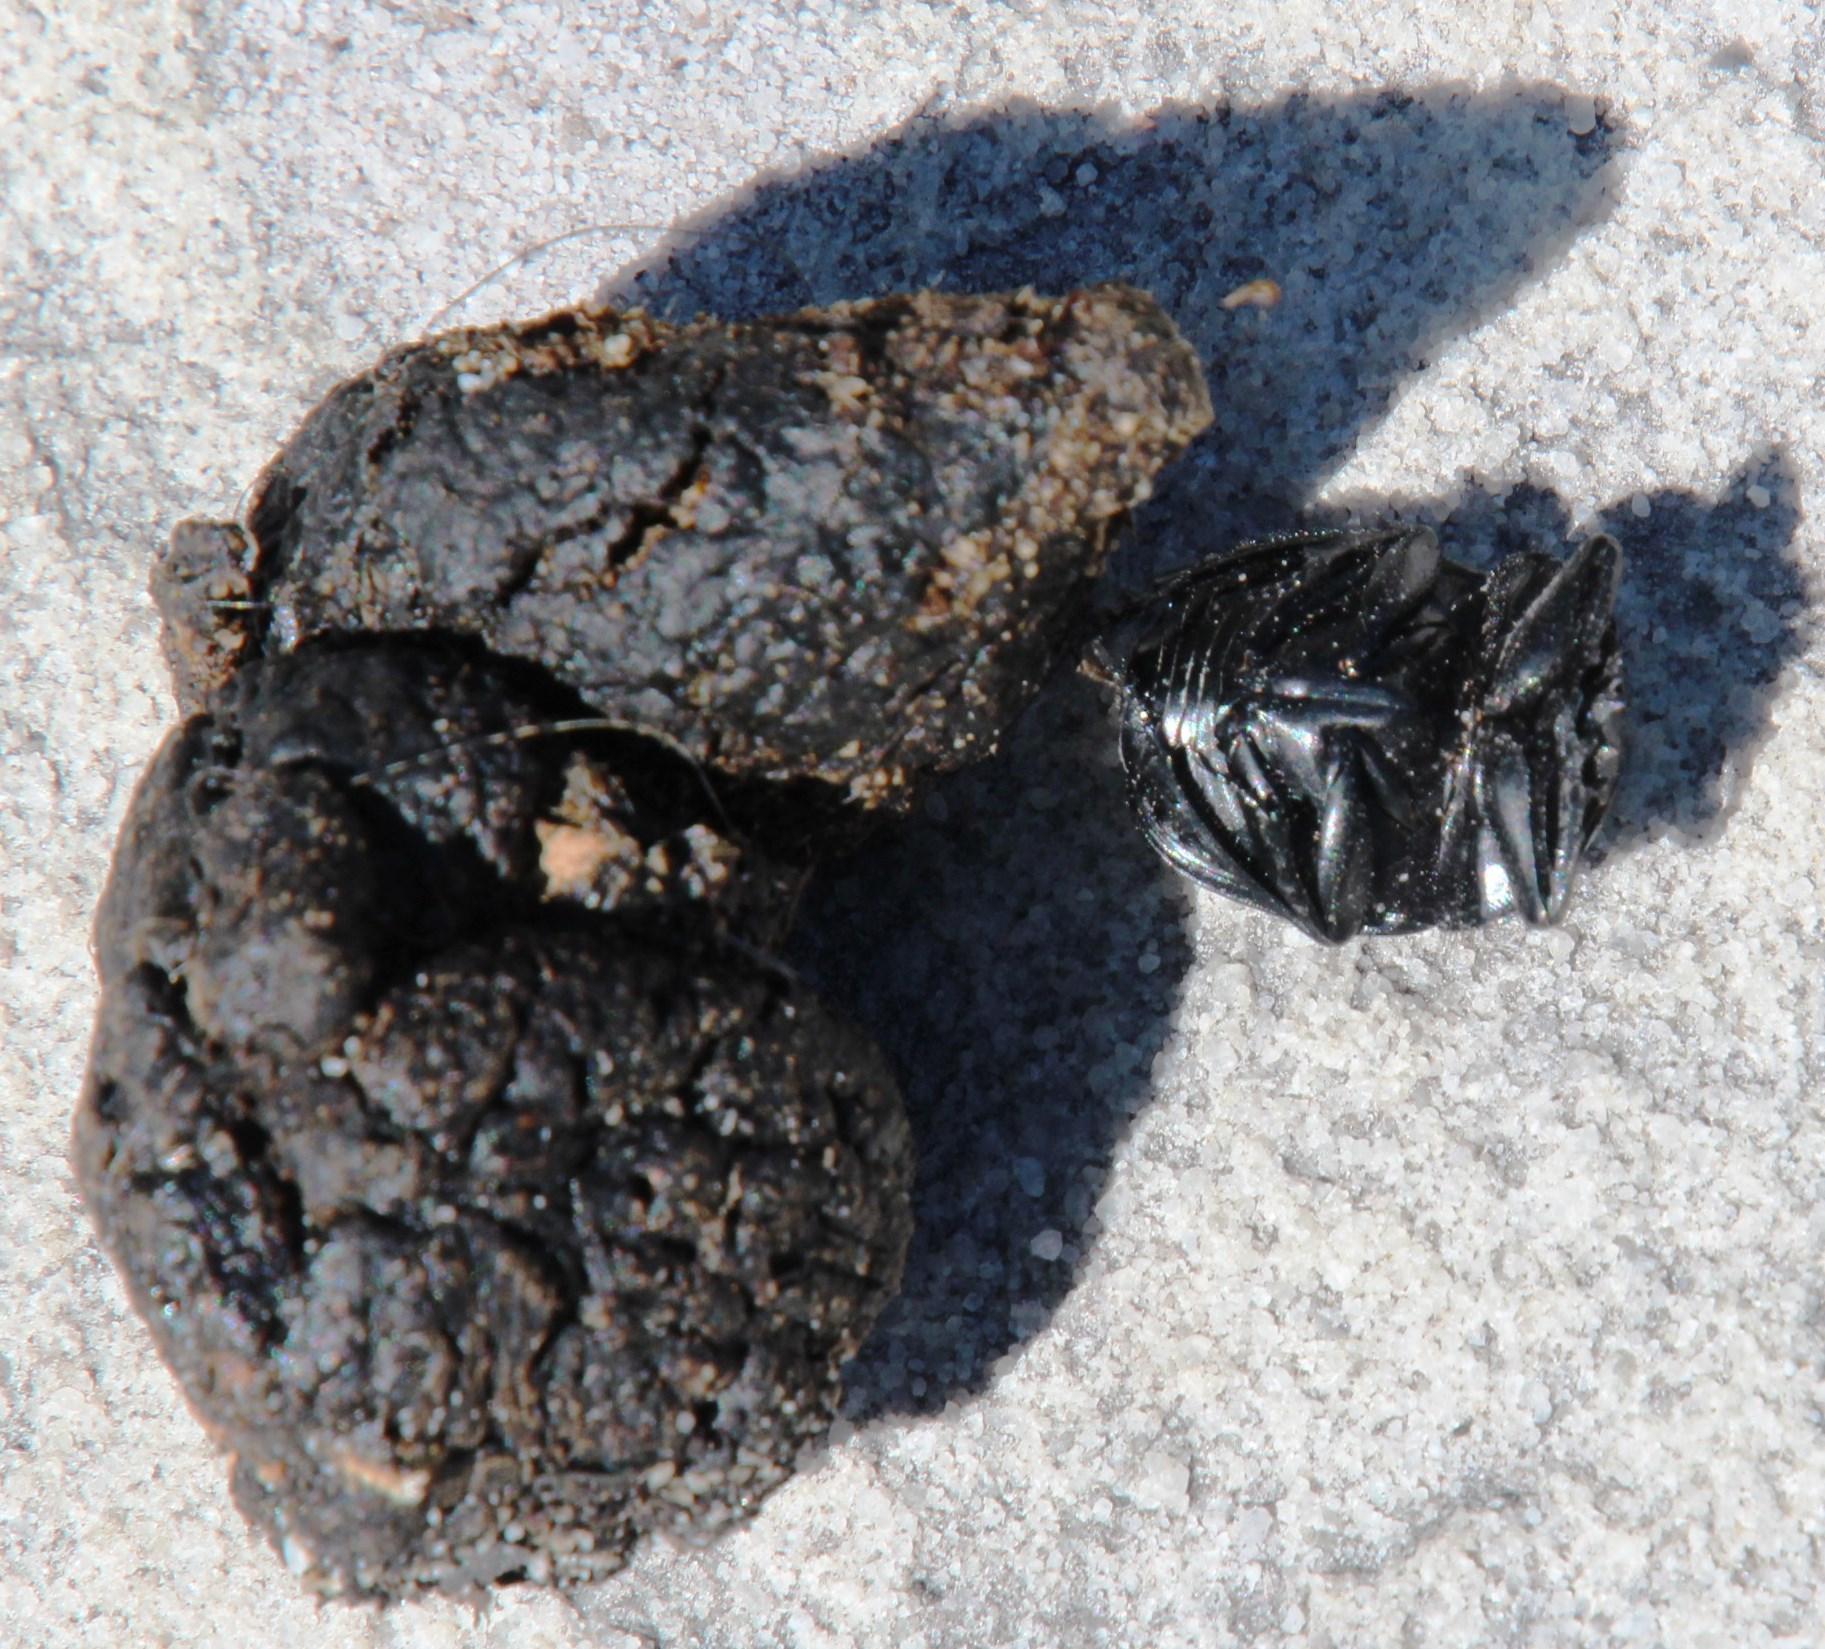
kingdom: Animalia
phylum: Arthropoda
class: Insecta
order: Coleoptera
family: Scarabaeidae
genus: Sceliages
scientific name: Sceliages adamastor
